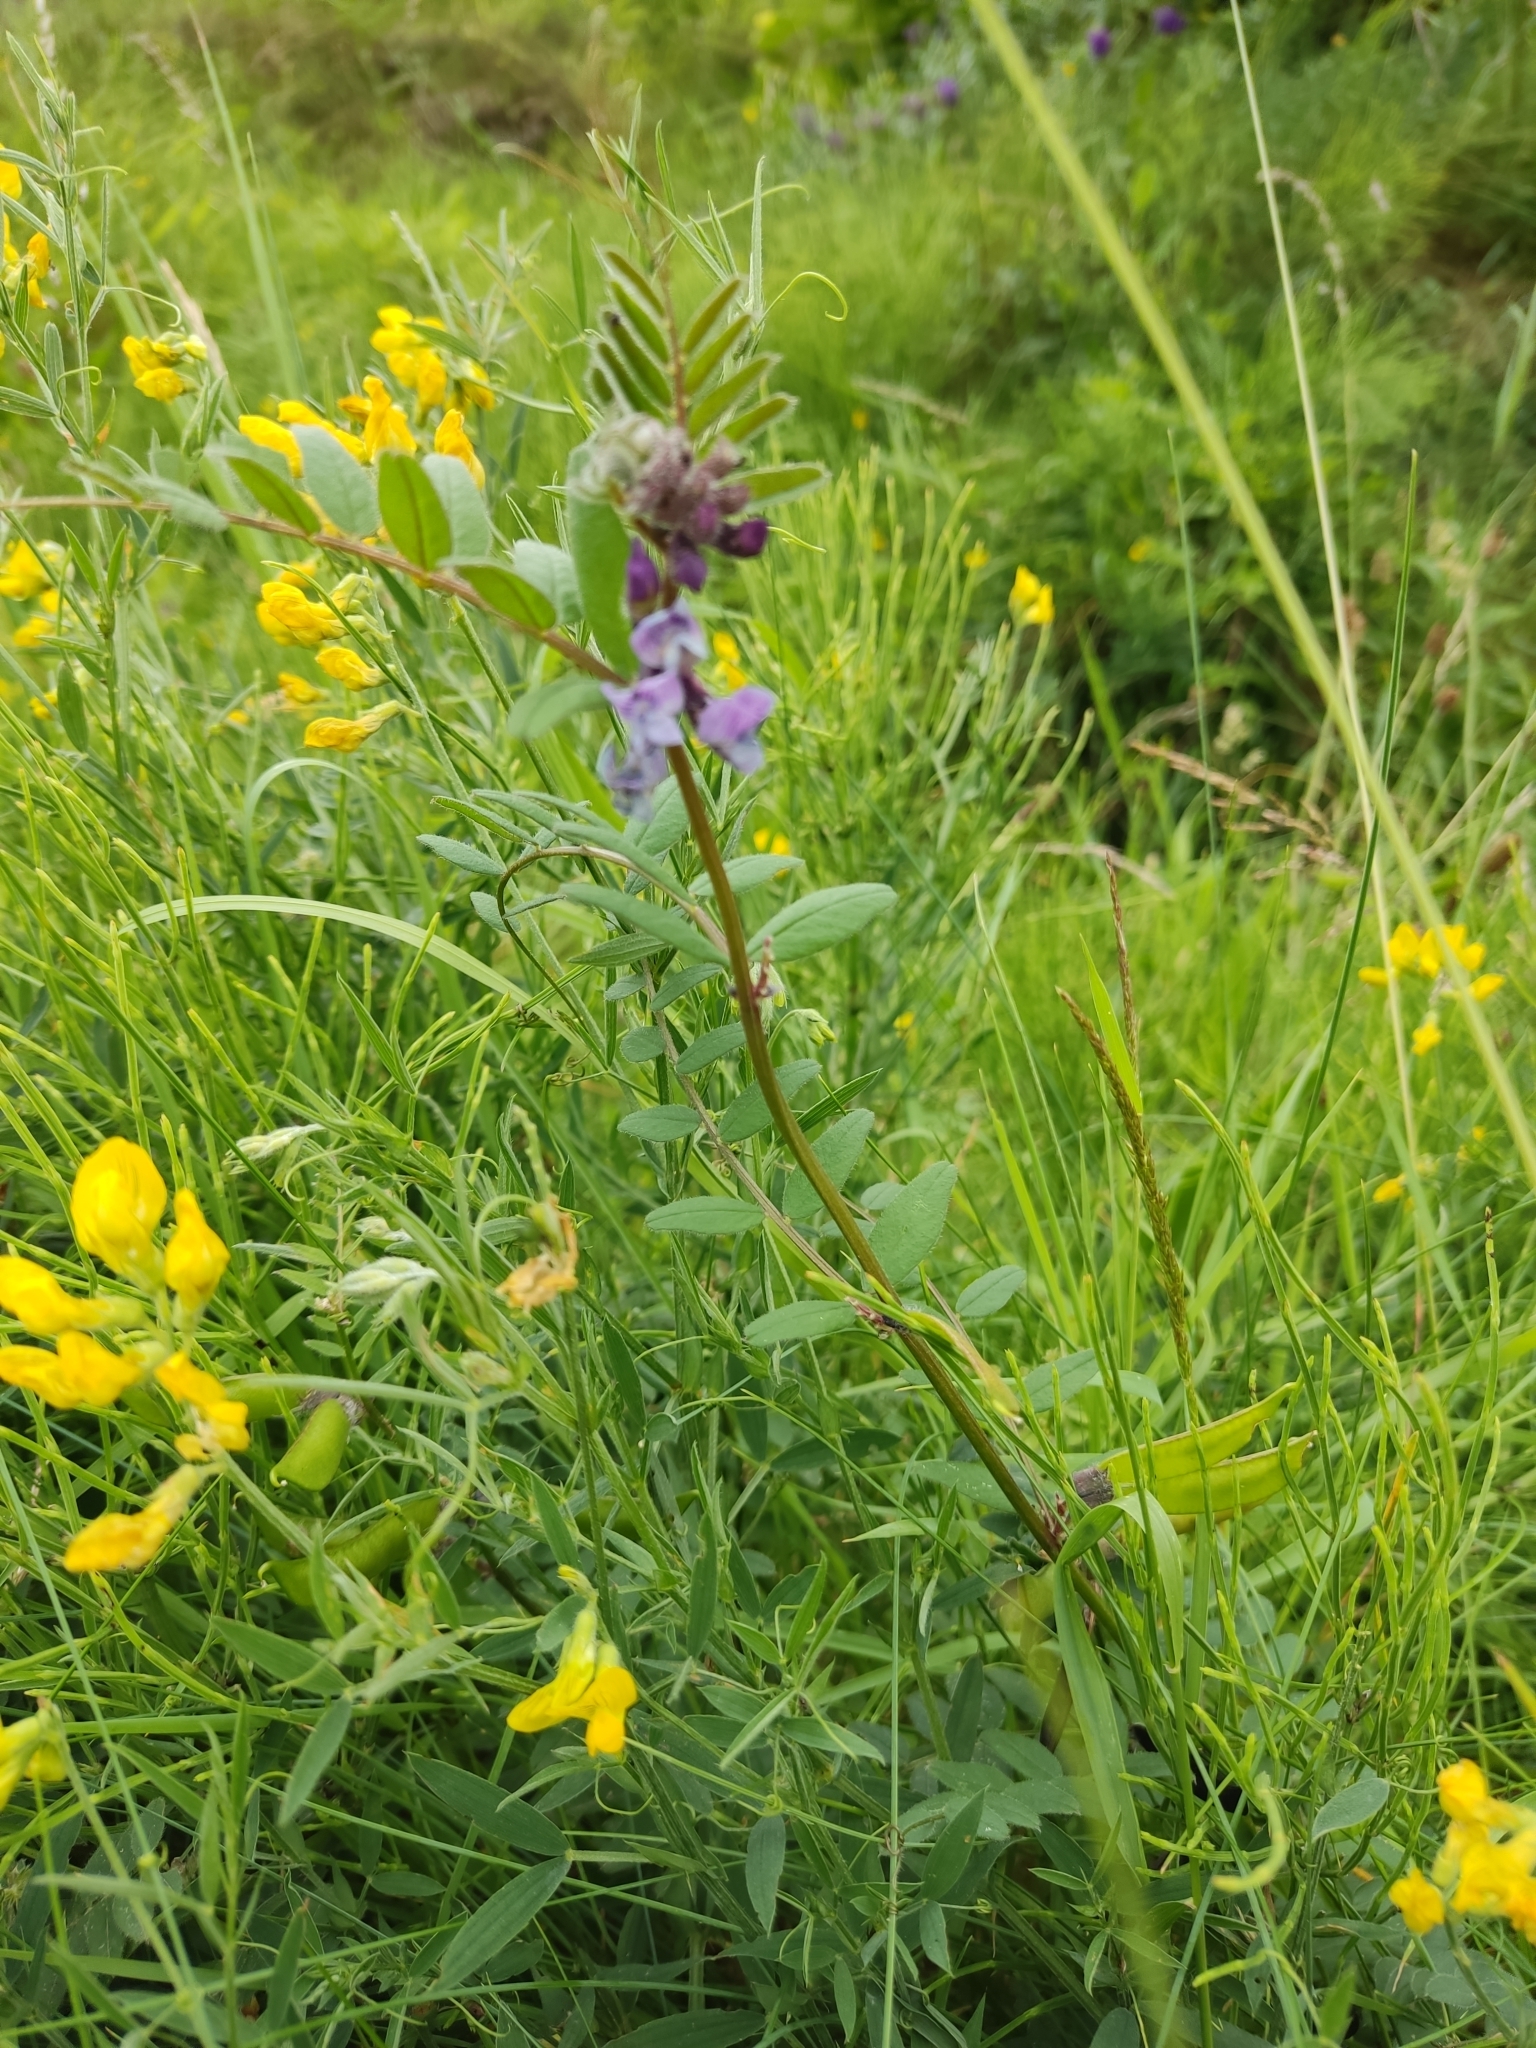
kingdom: Plantae
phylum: Tracheophyta
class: Magnoliopsida
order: Fabales
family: Fabaceae
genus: Vicia
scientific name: Vicia sepium
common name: Bush vetch
